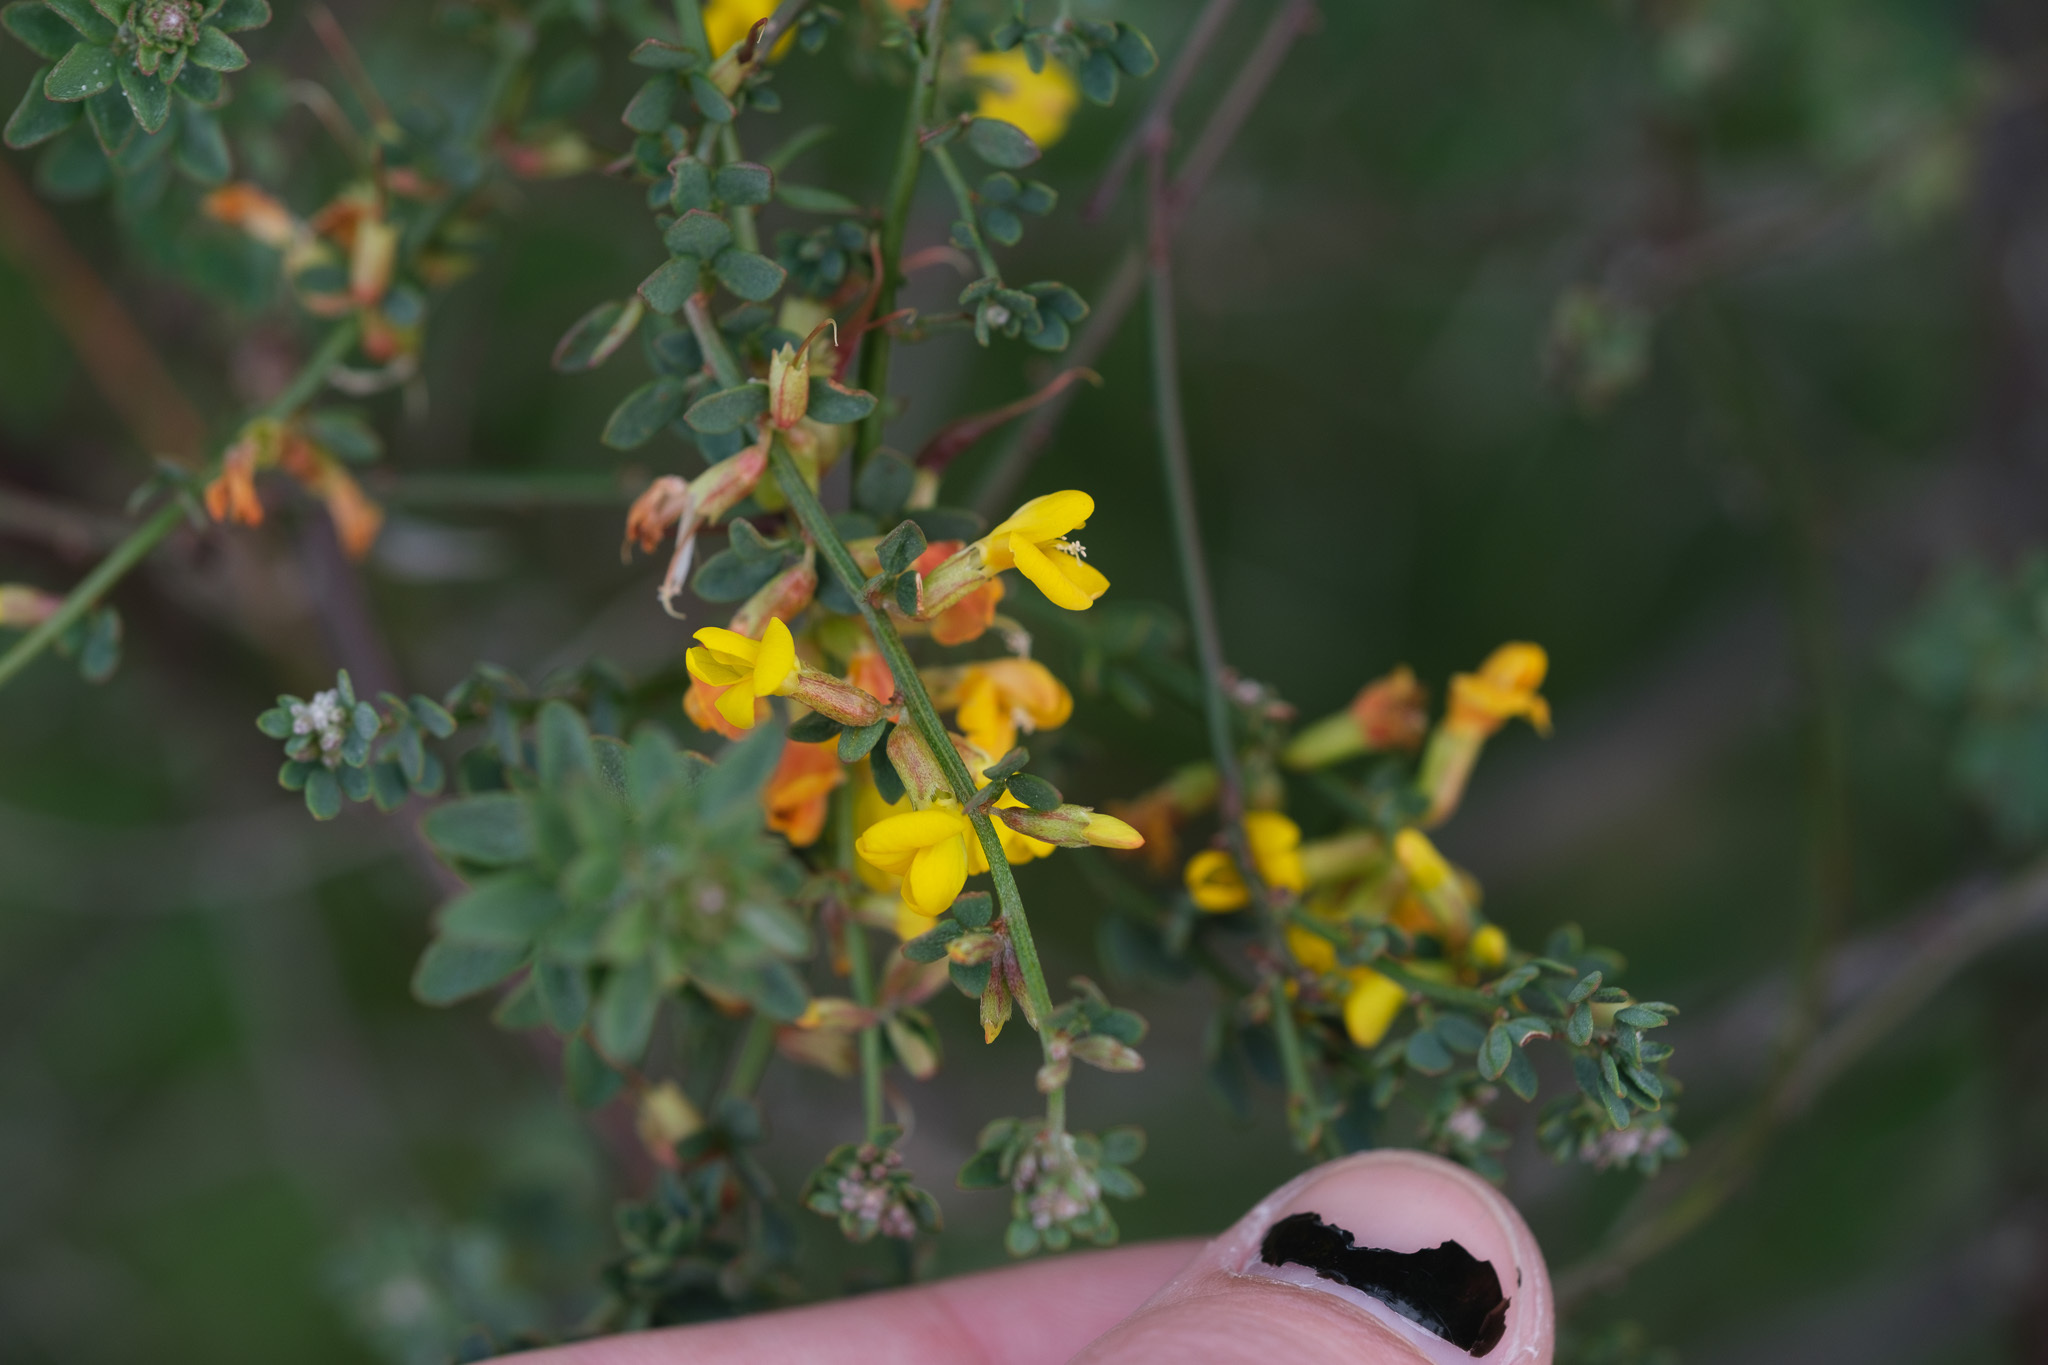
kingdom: Plantae
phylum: Tracheophyta
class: Magnoliopsida
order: Fabales
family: Fabaceae
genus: Acmispon
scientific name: Acmispon glaber
